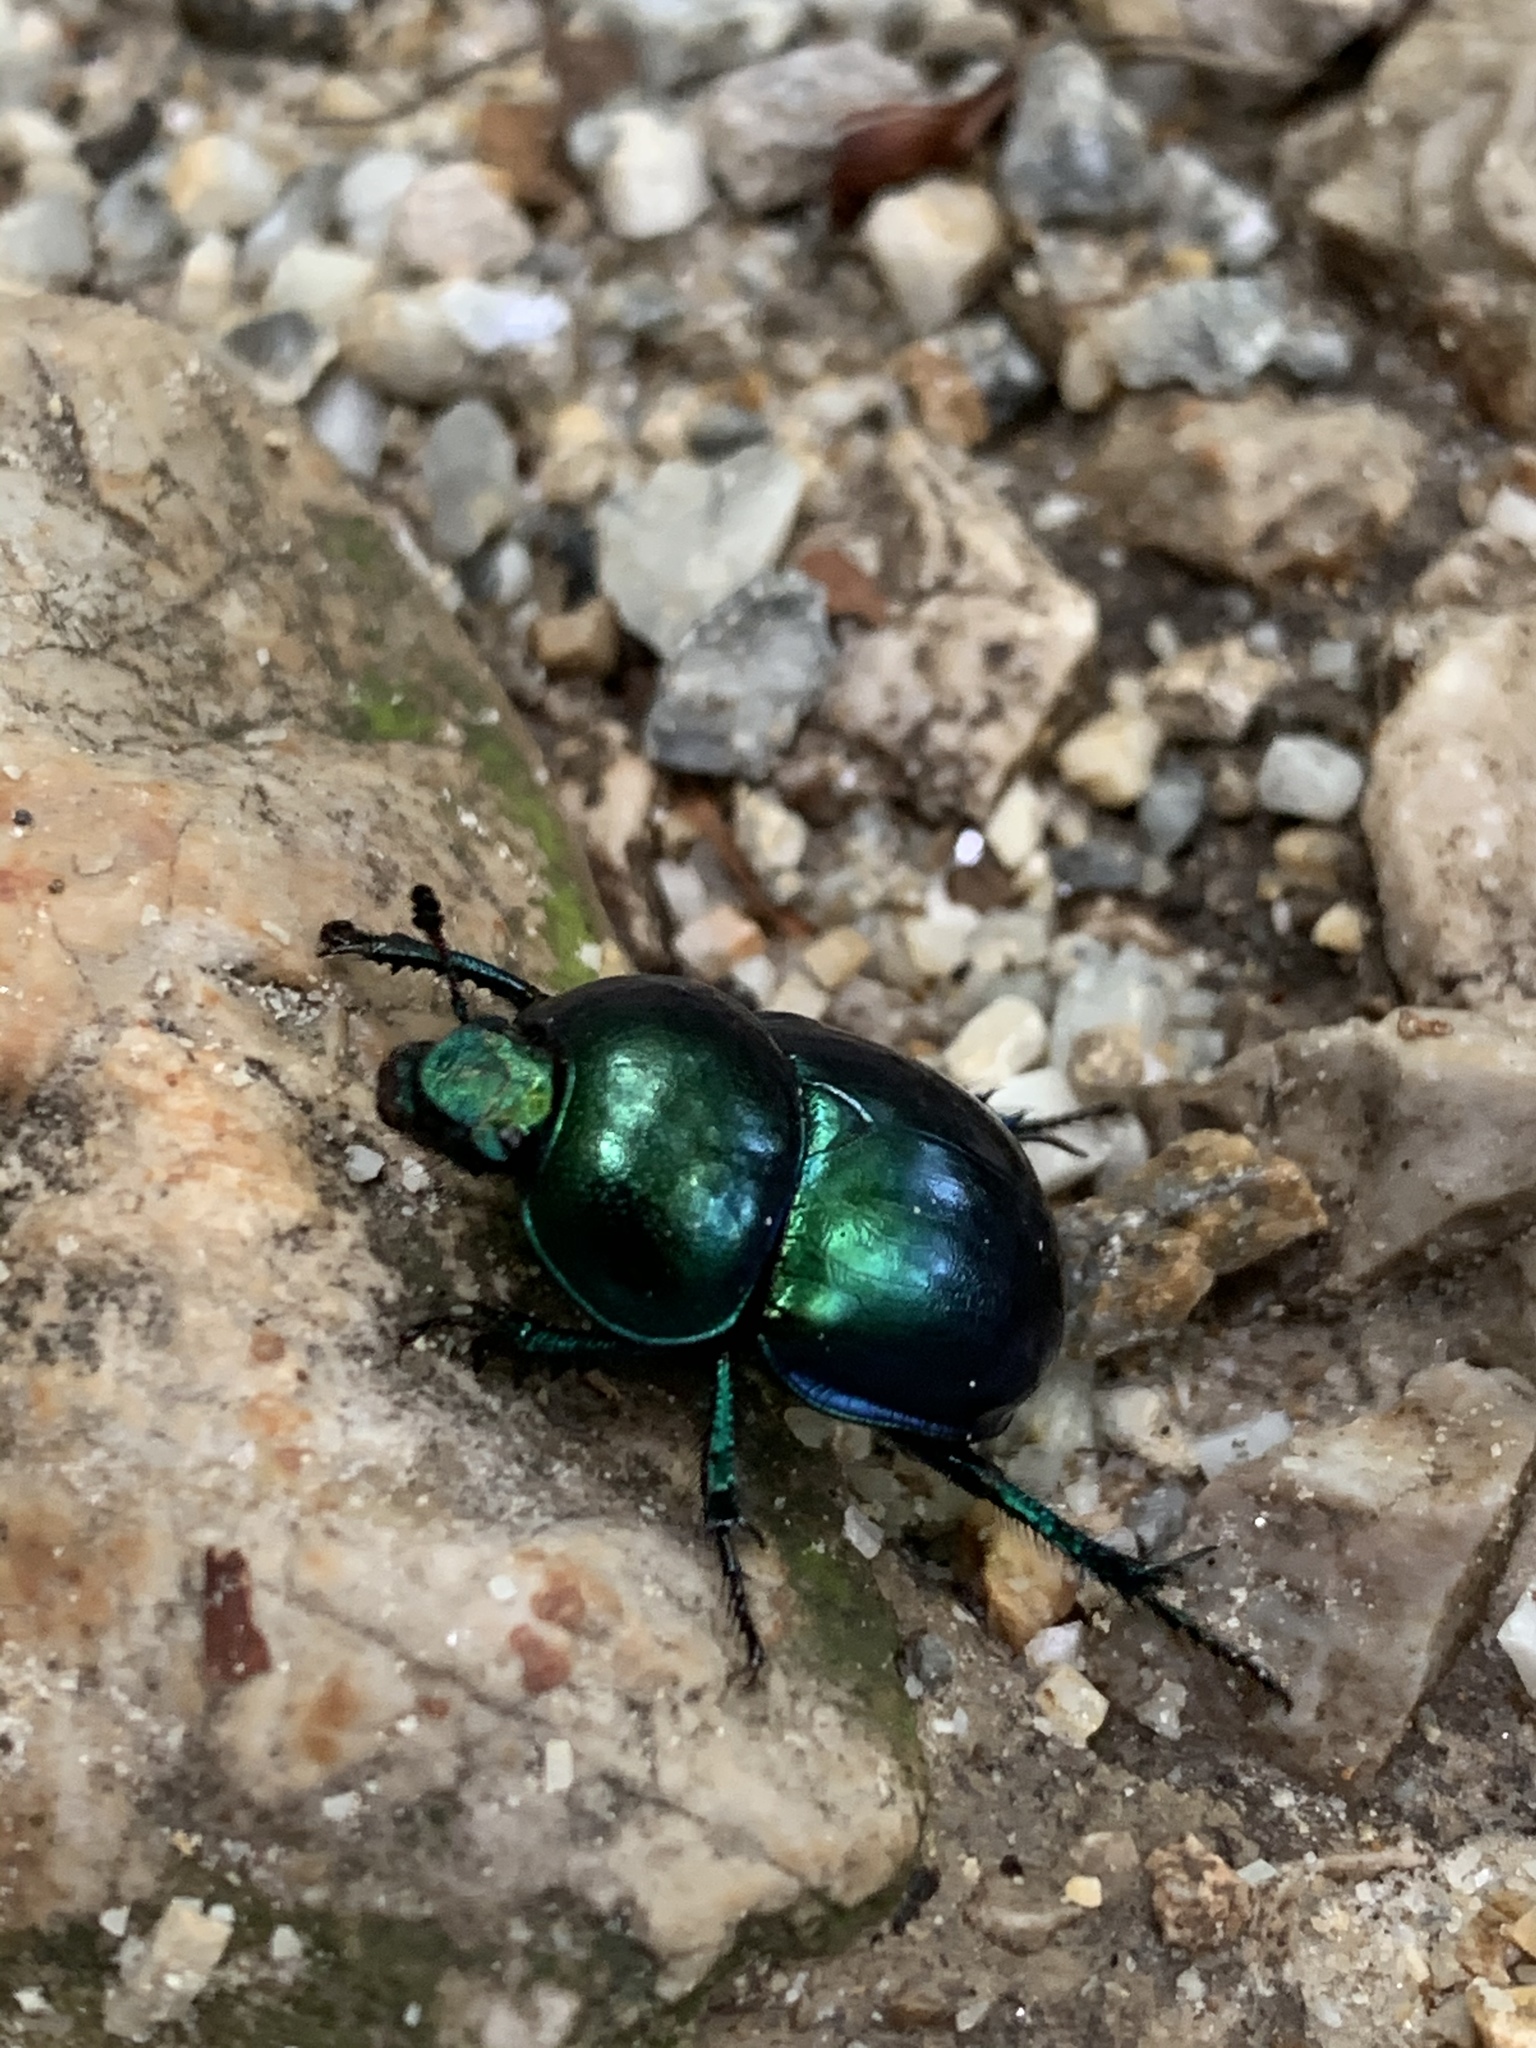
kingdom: Animalia
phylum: Arthropoda
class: Insecta
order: Coleoptera
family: Geotrupidae
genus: Trypocopris
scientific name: Trypocopris vernalis
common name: Spring dumbledor
